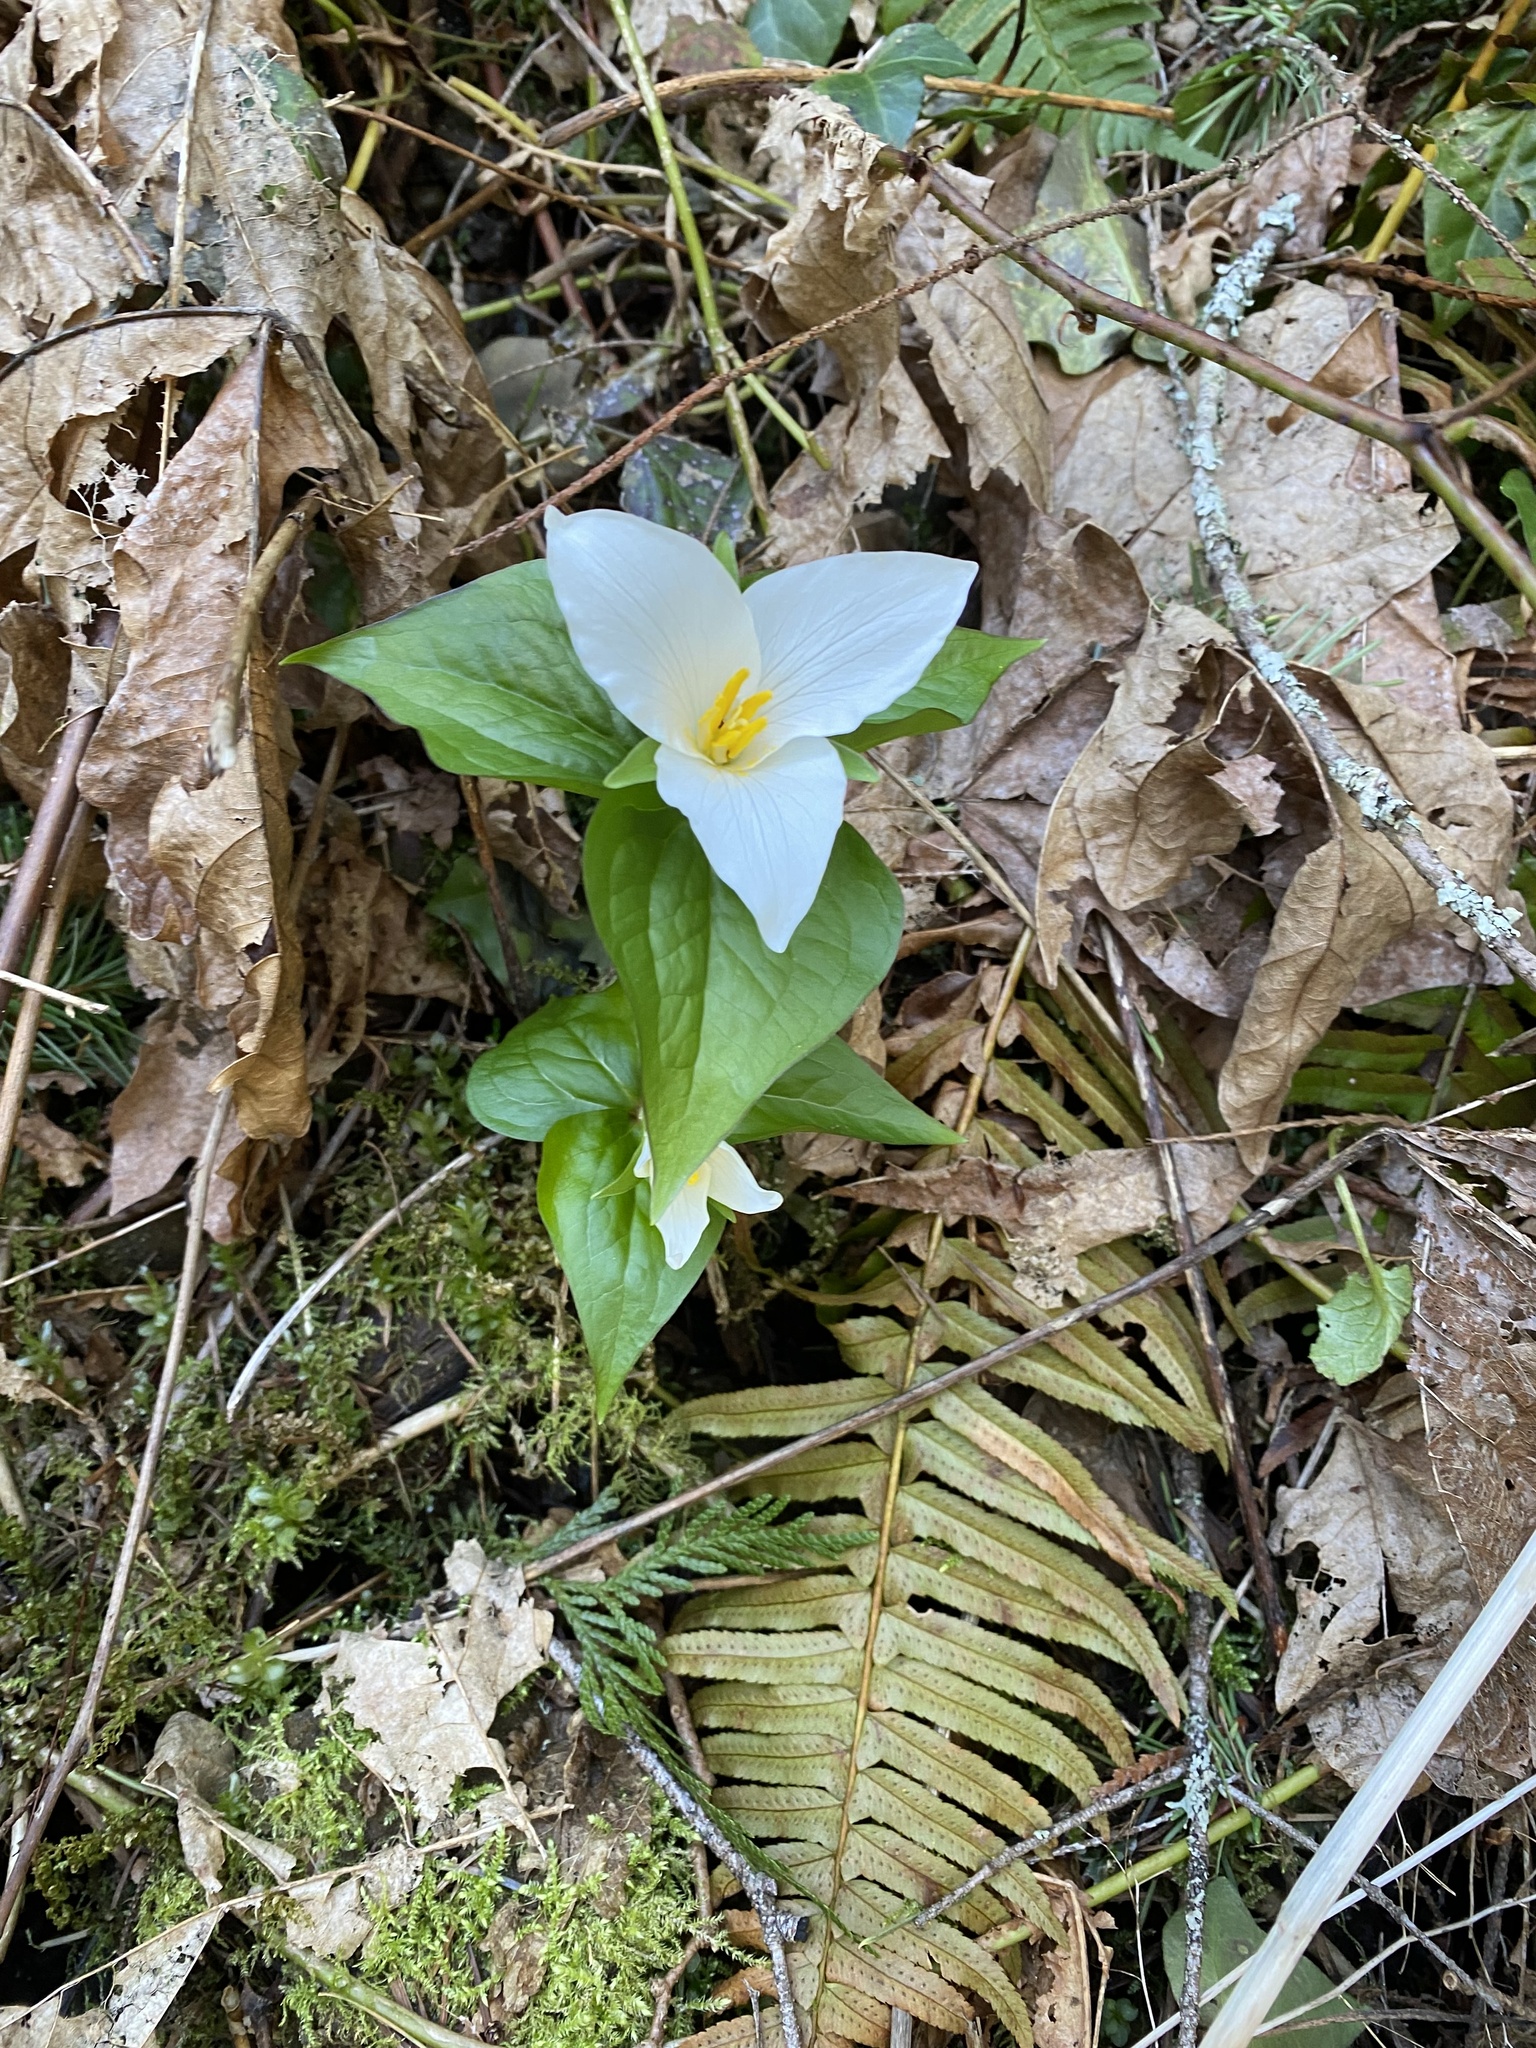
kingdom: Plantae
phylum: Tracheophyta
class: Liliopsida
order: Liliales
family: Melanthiaceae
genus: Trillium
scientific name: Trillium ovatum
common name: Pacific trillium
